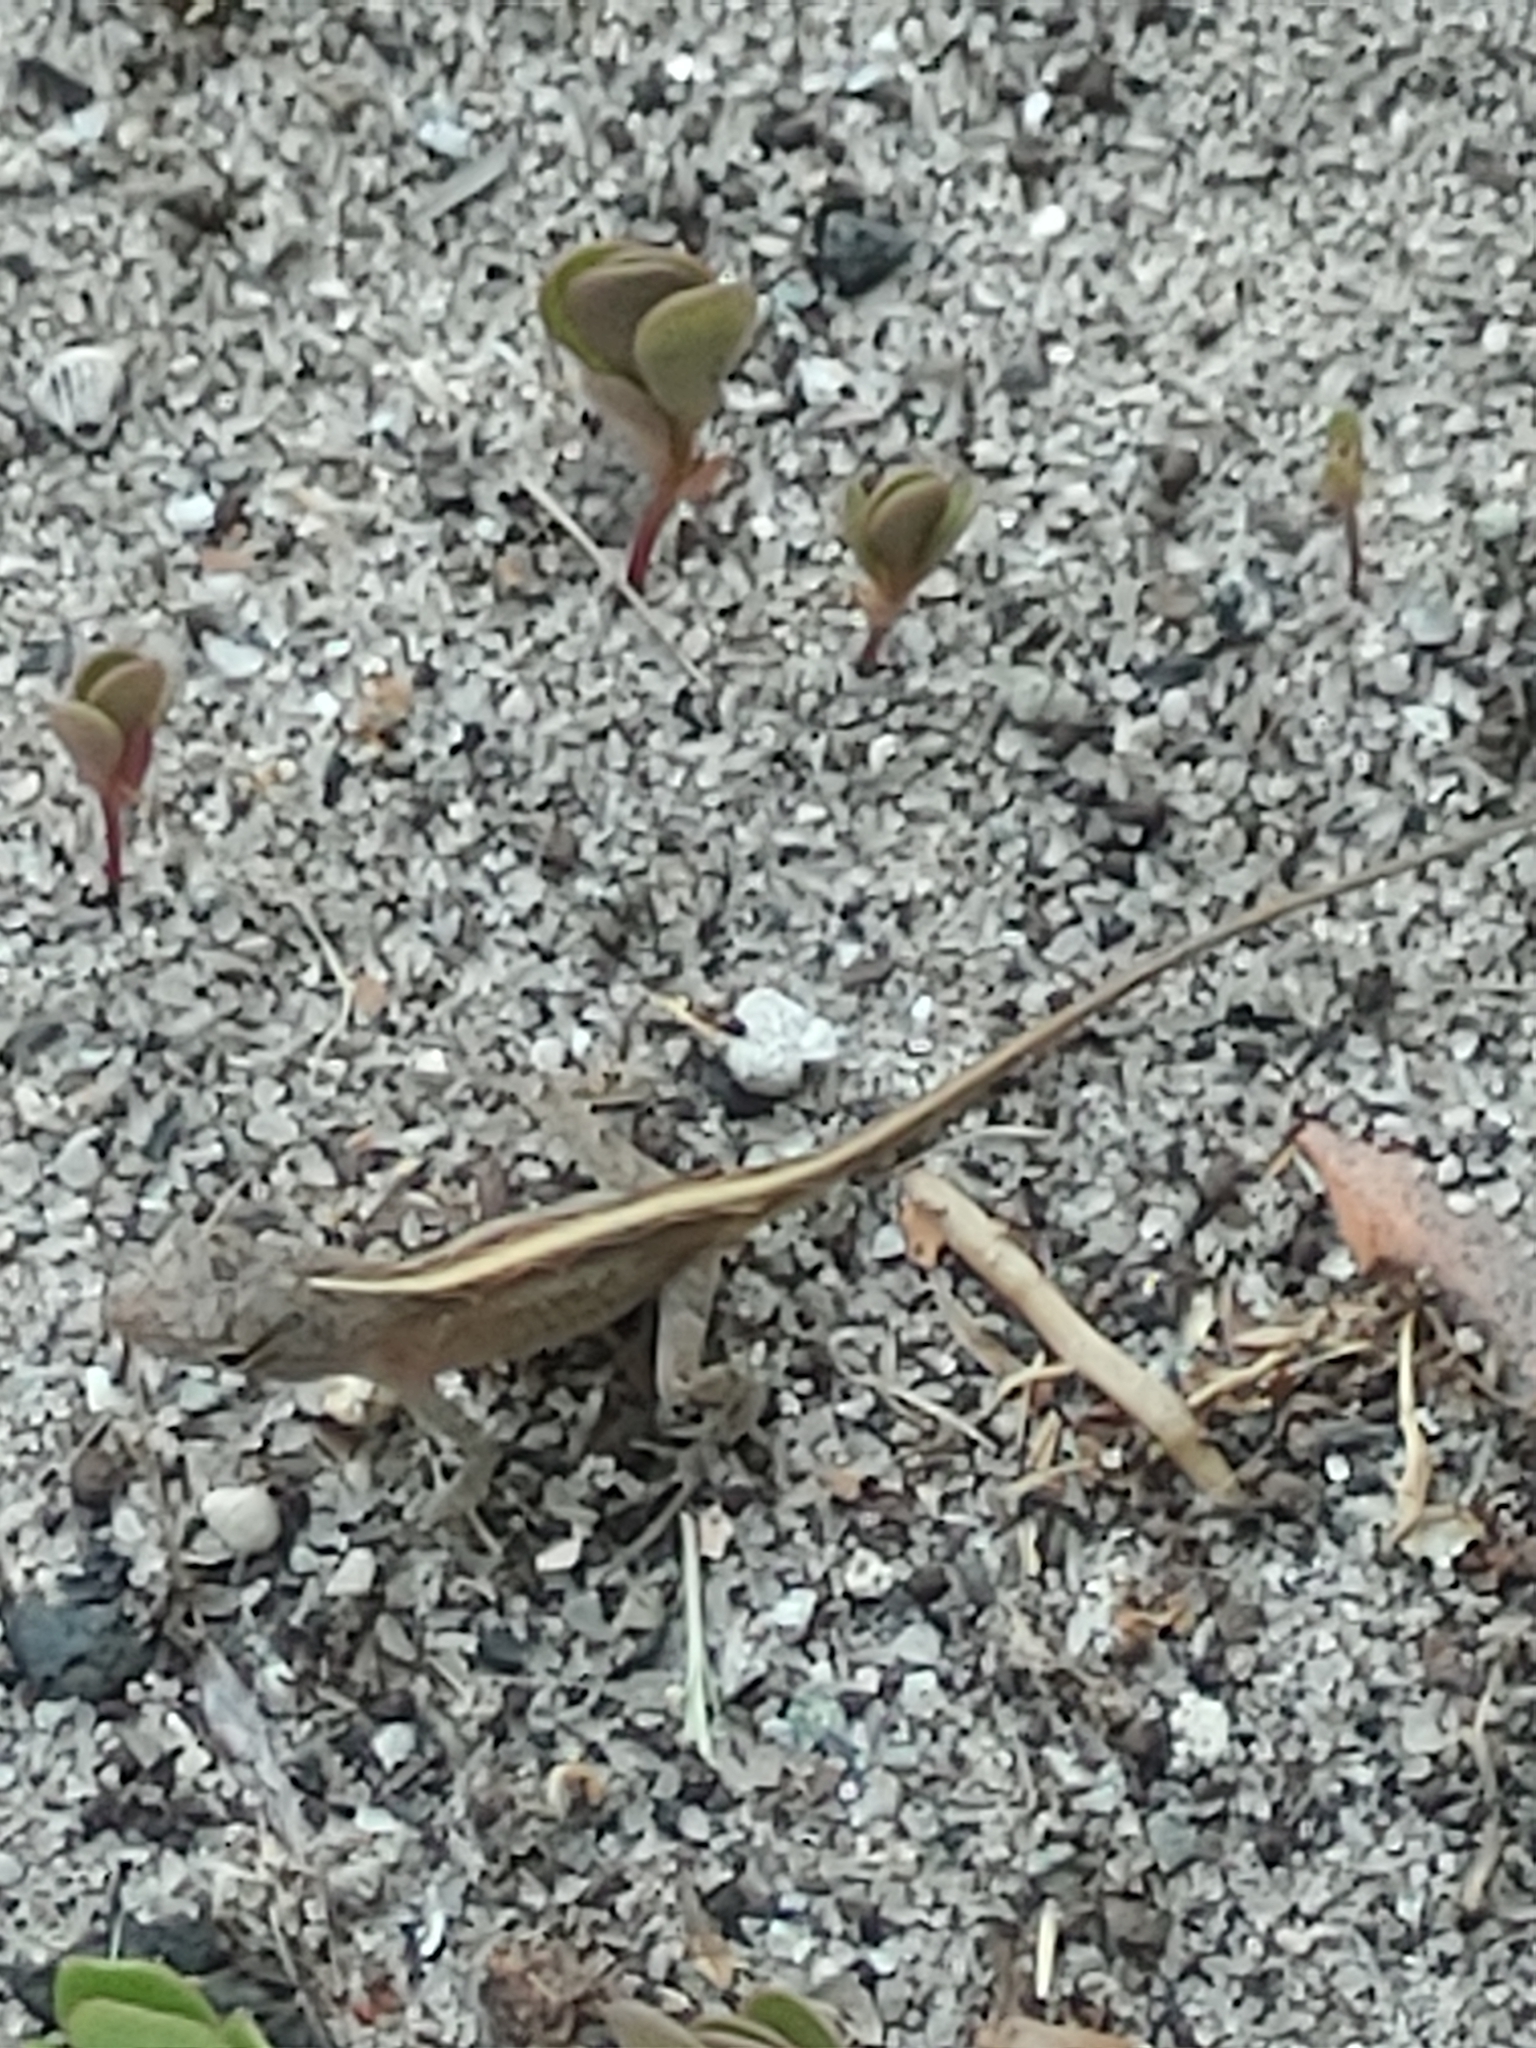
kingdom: Animalia
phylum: Chordata
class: Squamata
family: Dactyloidae
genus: Anolis
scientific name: Anolis sagrei
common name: Brown anole
